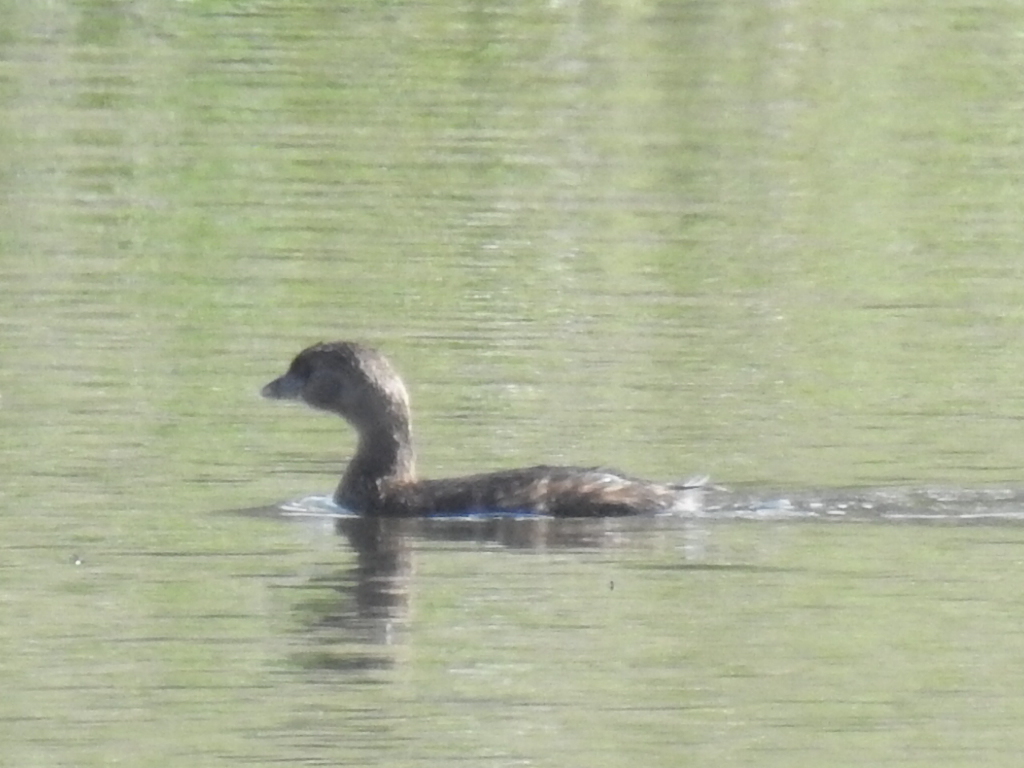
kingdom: Animalia
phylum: Chordata
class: Aves
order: Podicipediformes
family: Podicipedidae
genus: Podilymbus
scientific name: Podilymbus podiceps
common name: Pied-billed grebe
